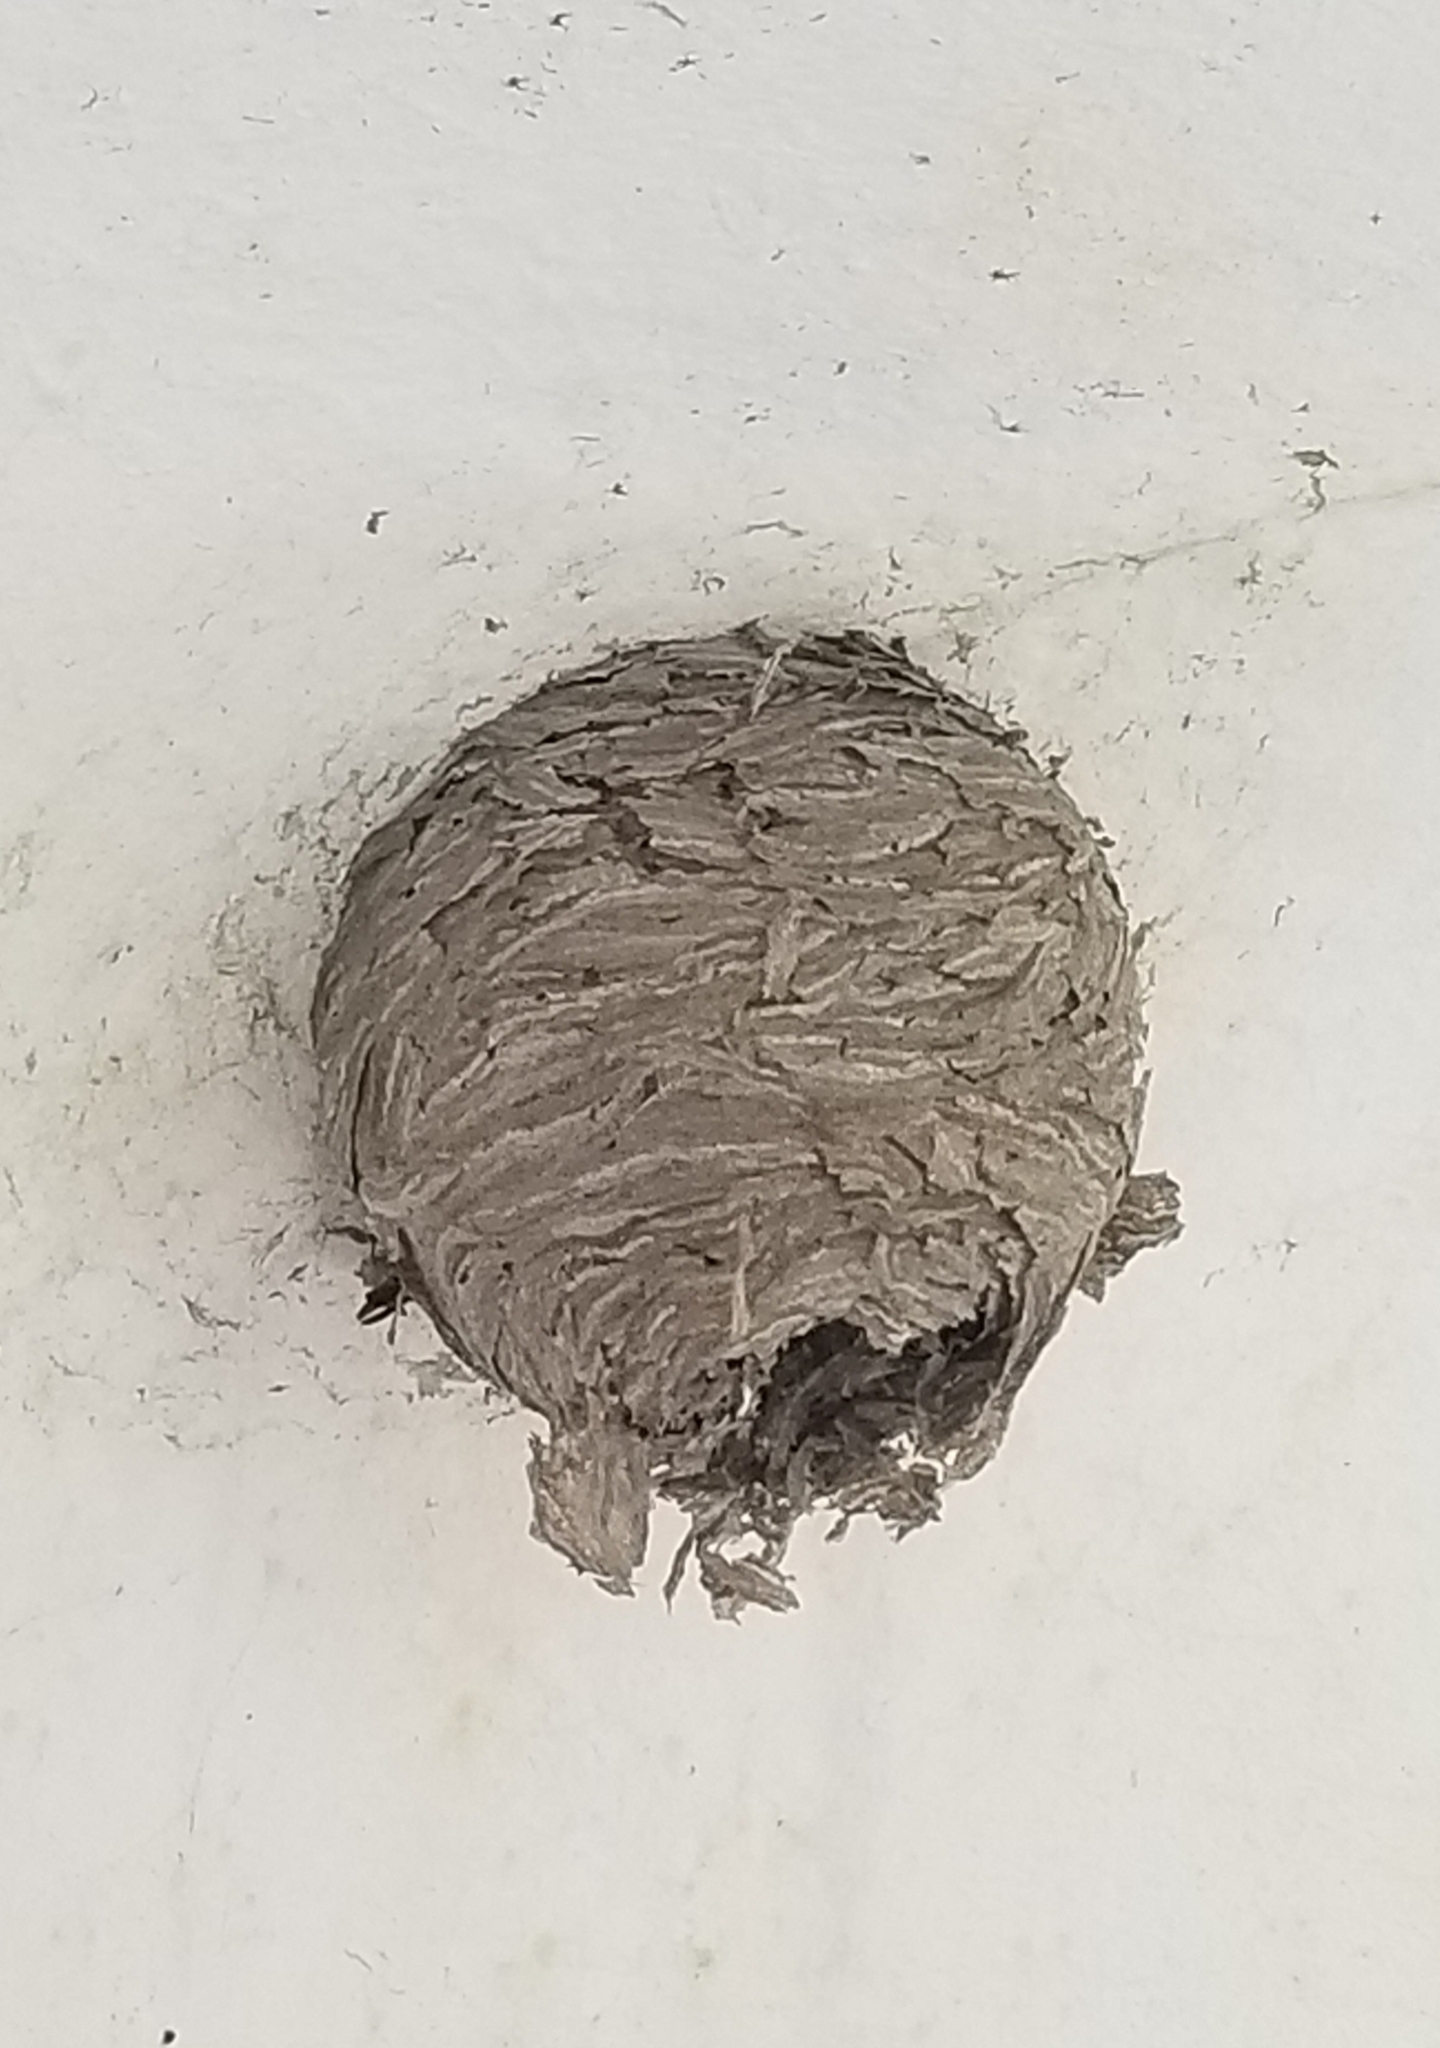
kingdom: Animalia
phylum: Arthropoda
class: Insecta
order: Hymenoptera
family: Vespidae
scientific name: Vespidae
